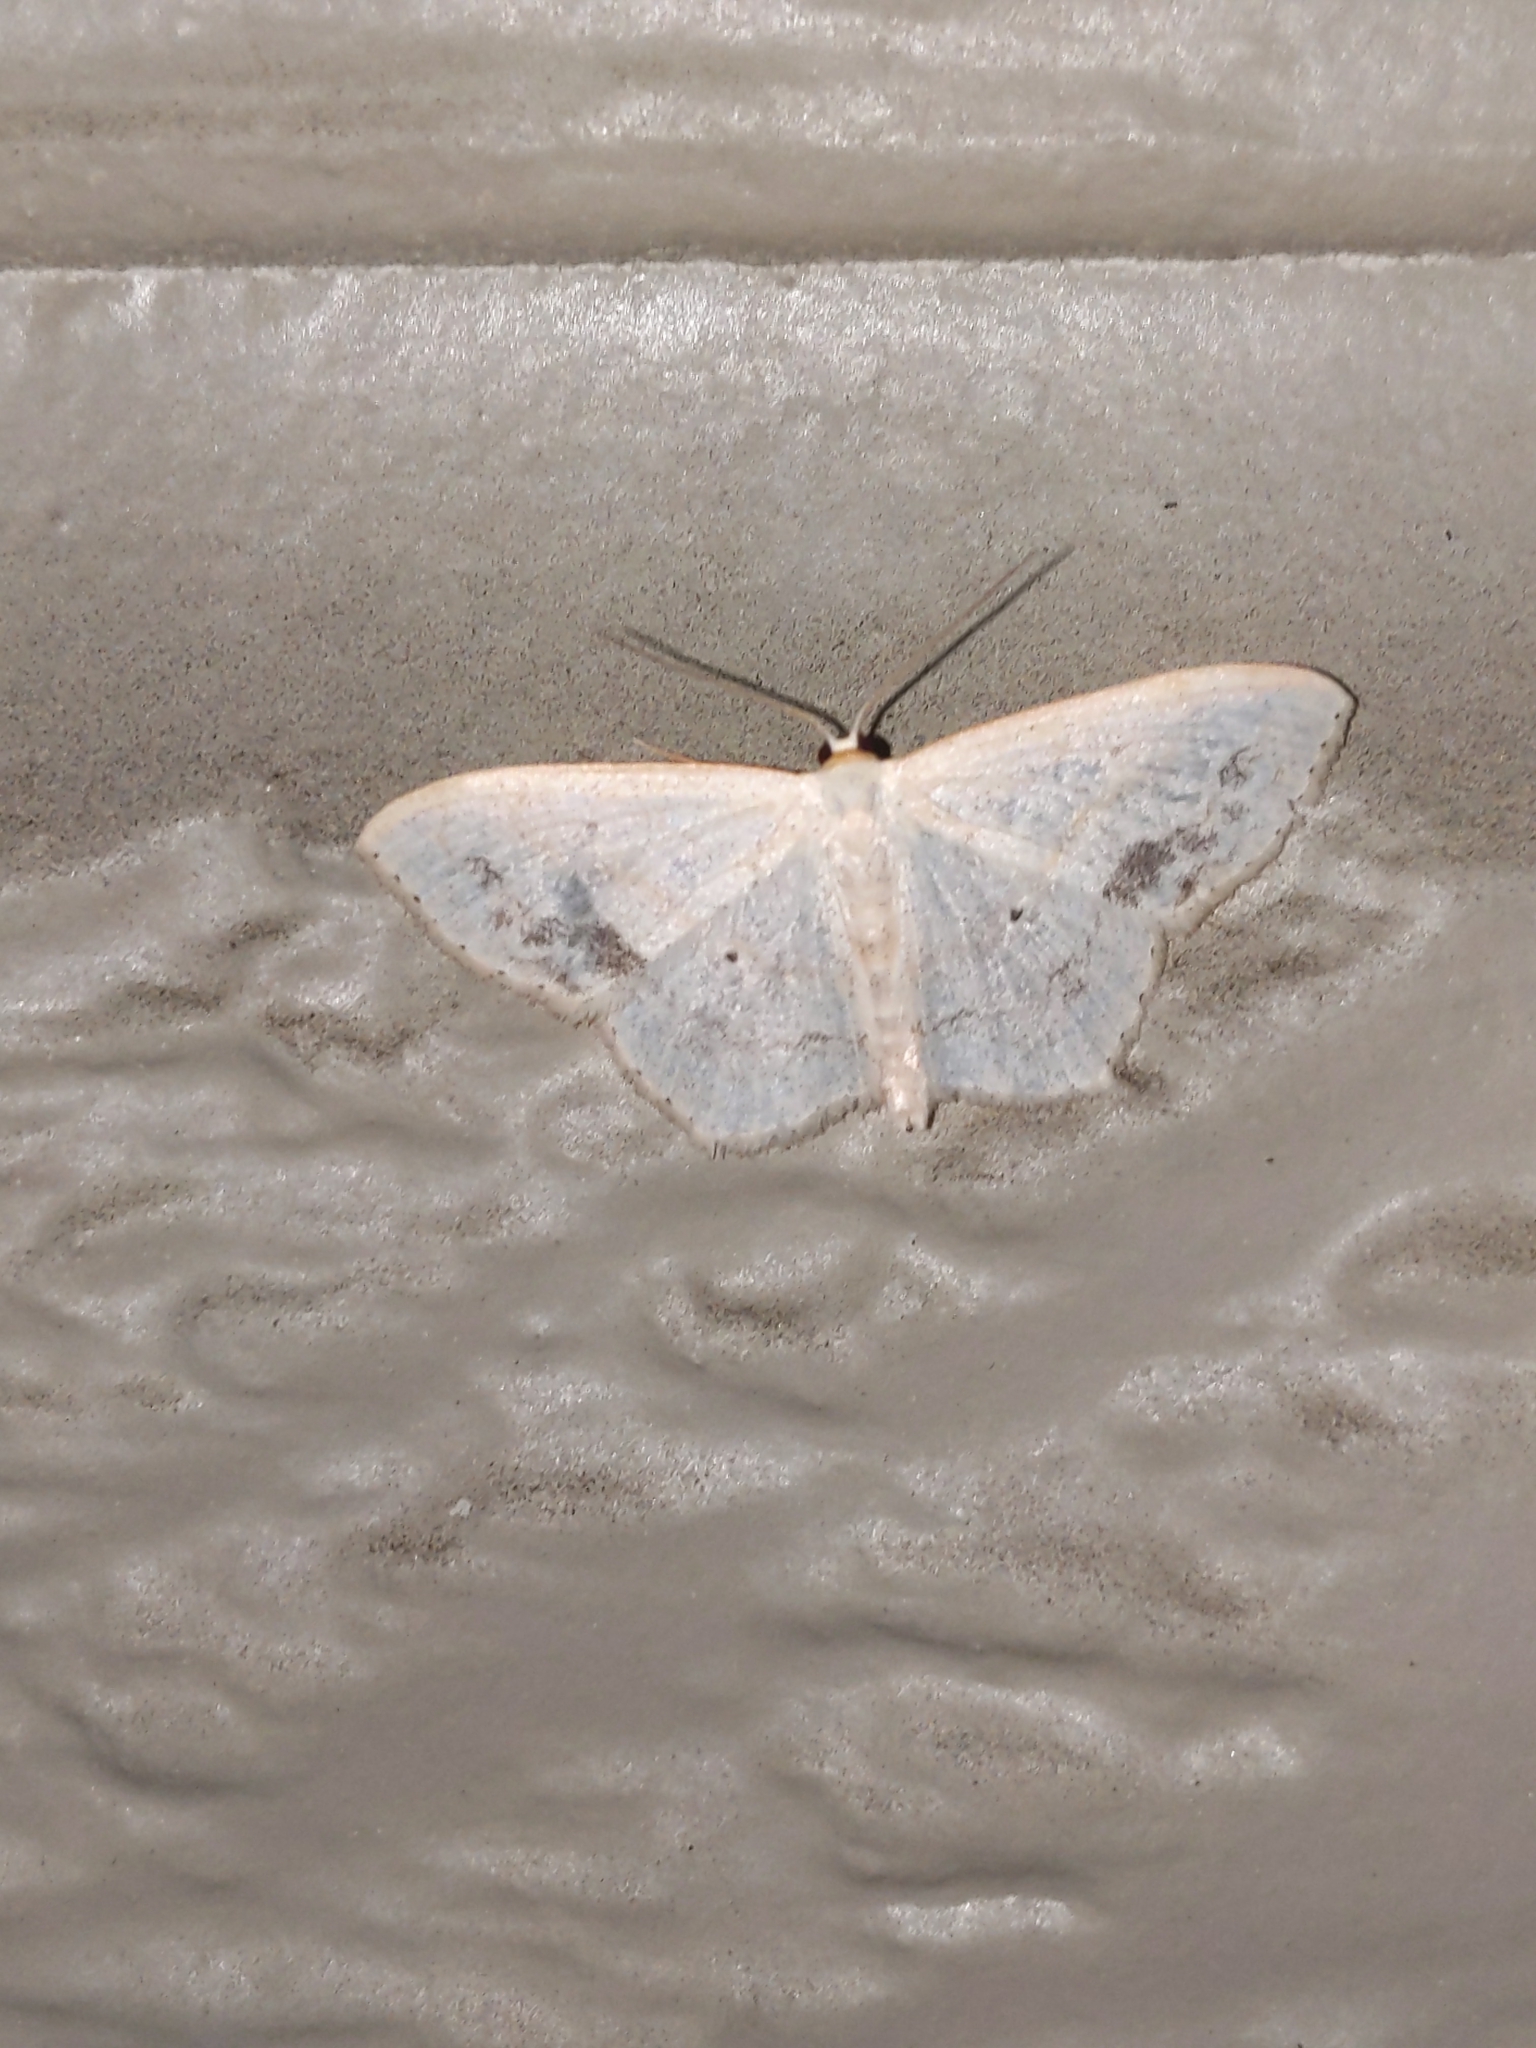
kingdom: Animalia
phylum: Arthropoda
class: Insecta
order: Lepidoptera
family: Geometridae
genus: Scopula
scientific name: Scopula limboundata
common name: Large lace border
